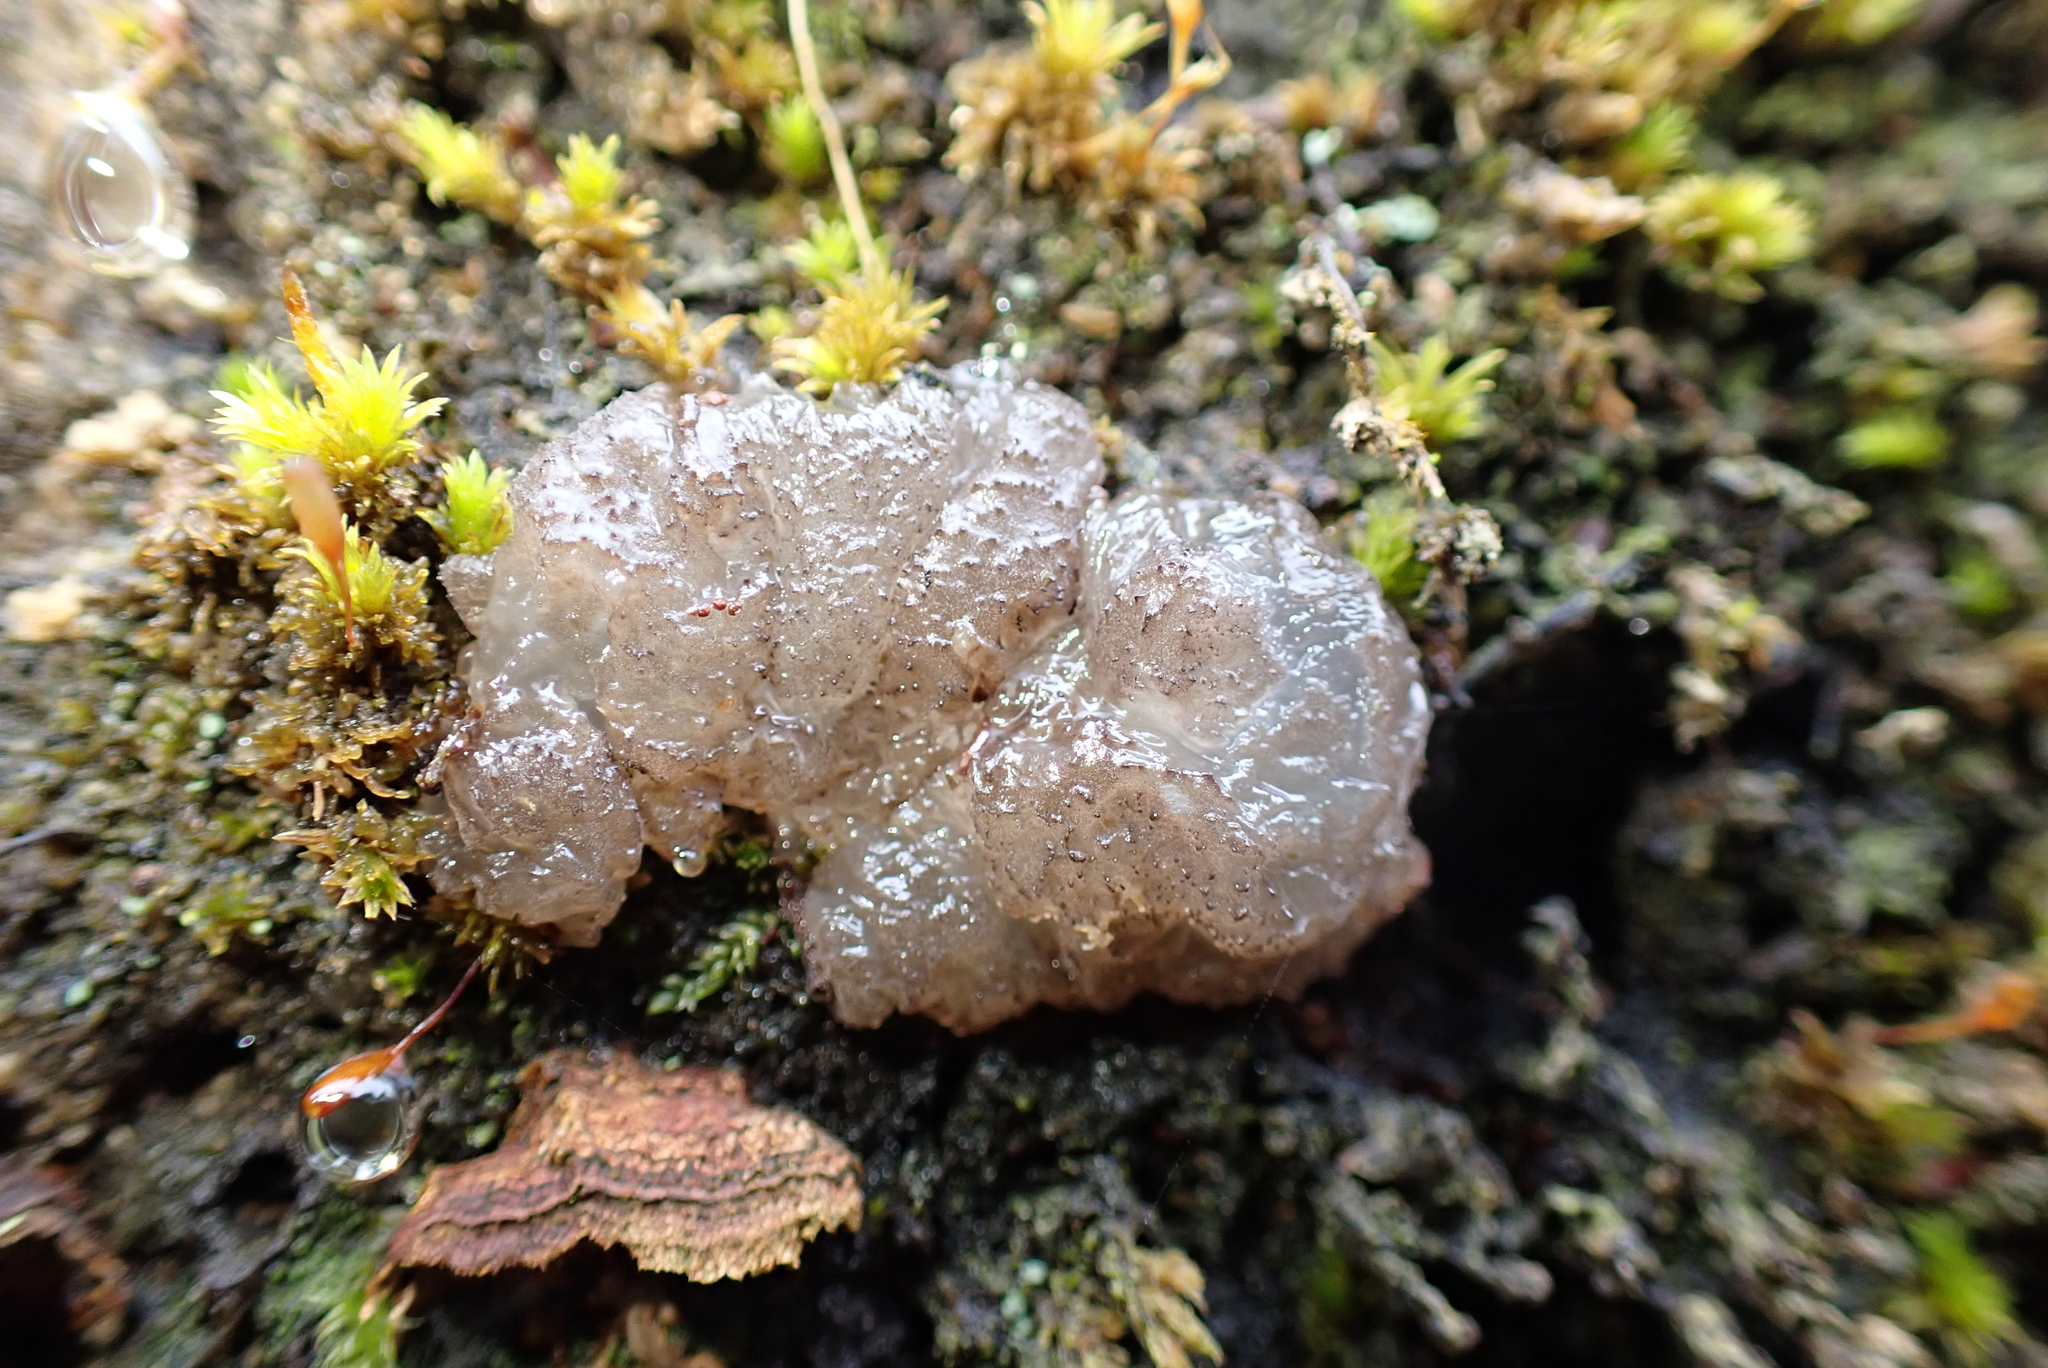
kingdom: Fungi
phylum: Basidiomycota
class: Agaricomycetes
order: Auriculariales
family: Auriculariaceae
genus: Tremellochaete
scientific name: Tremellochaete
